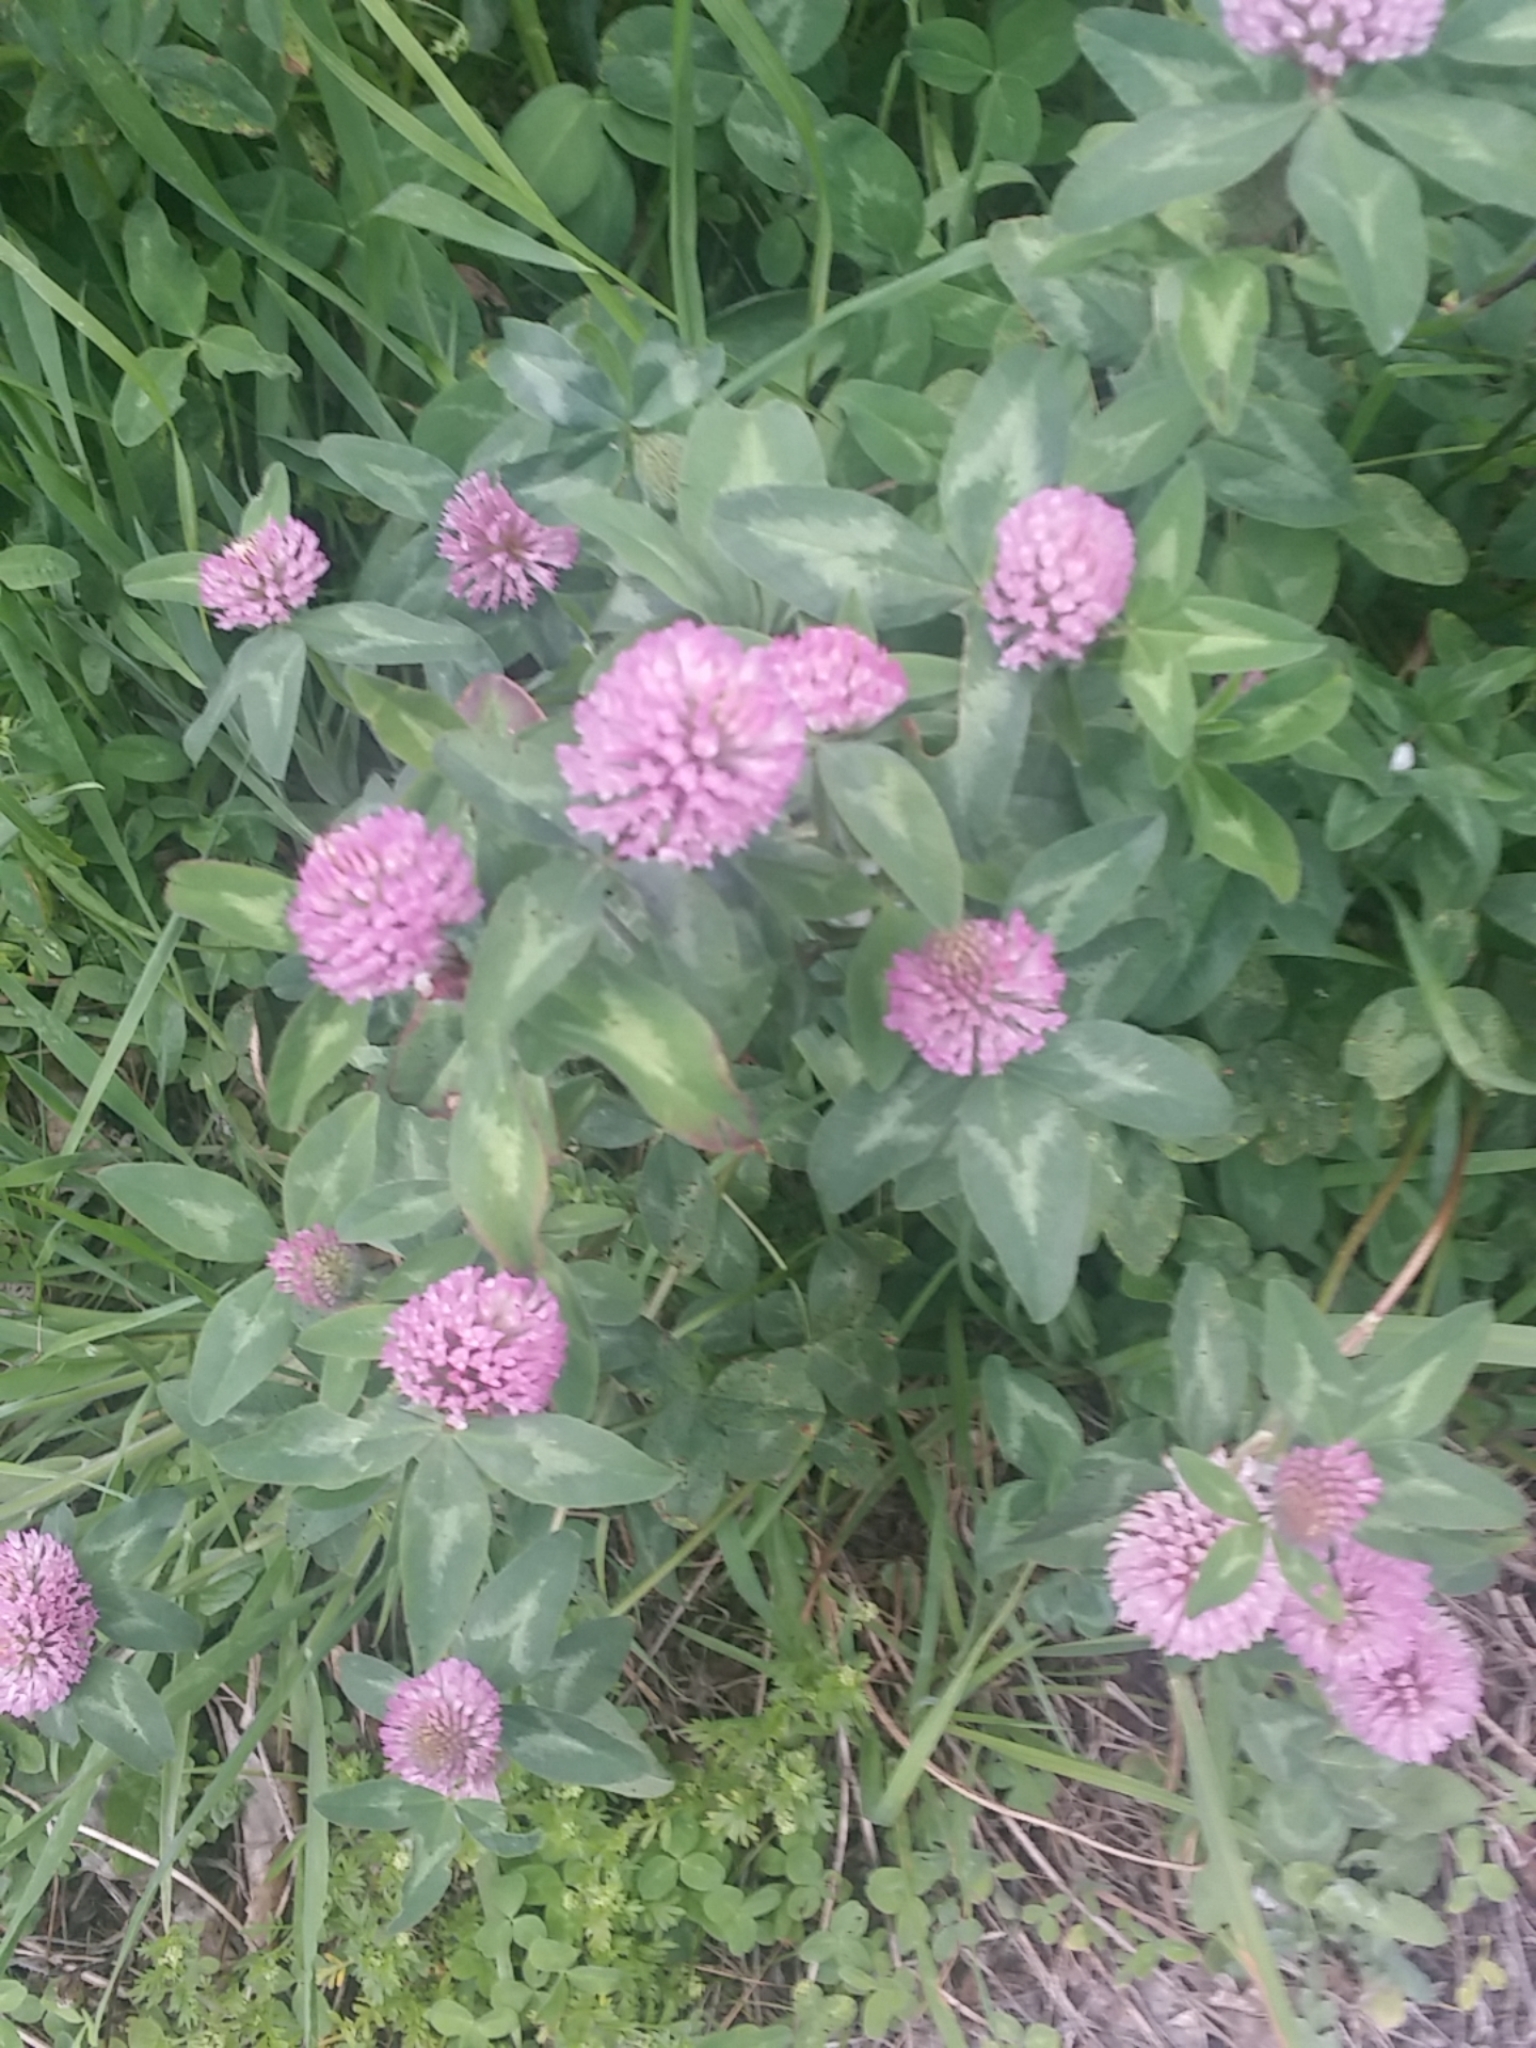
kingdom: Plantae
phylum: Tracheophyta
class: Magnoliopsida
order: Fabales
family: Fabaceae
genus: Trifolium
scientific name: Trifolium pratense
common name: Red clover
